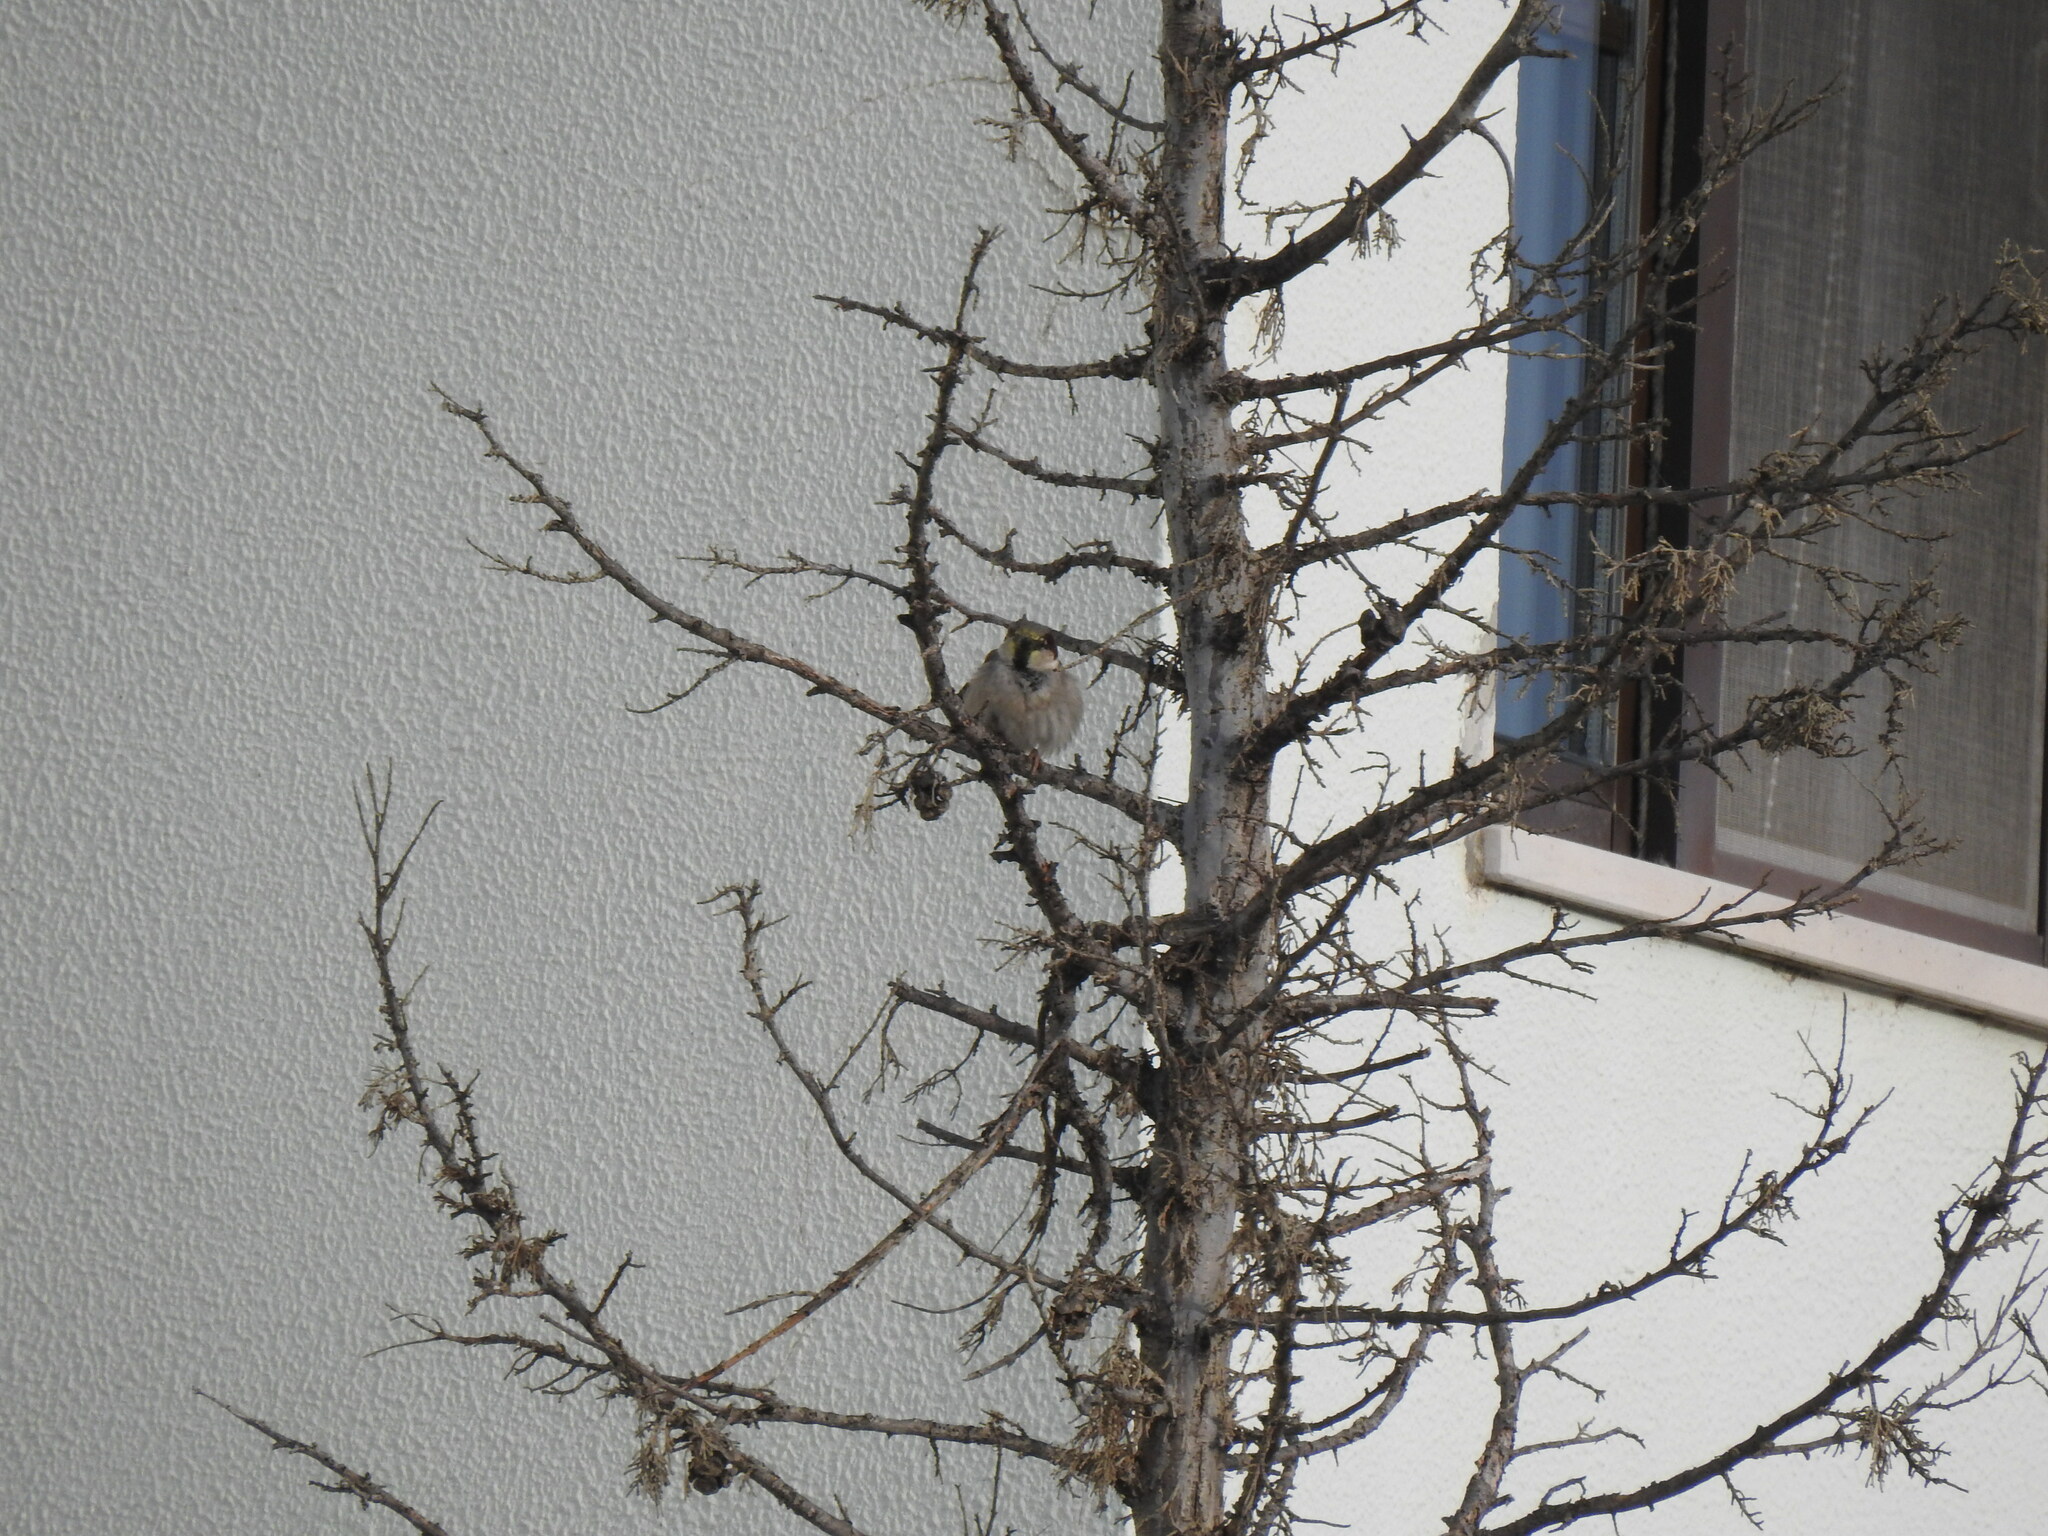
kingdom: Animalia
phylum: Chordata
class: Aves
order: Passeriformes
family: Passeridae
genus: Passer
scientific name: Passer domesticus
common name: House sparrow
